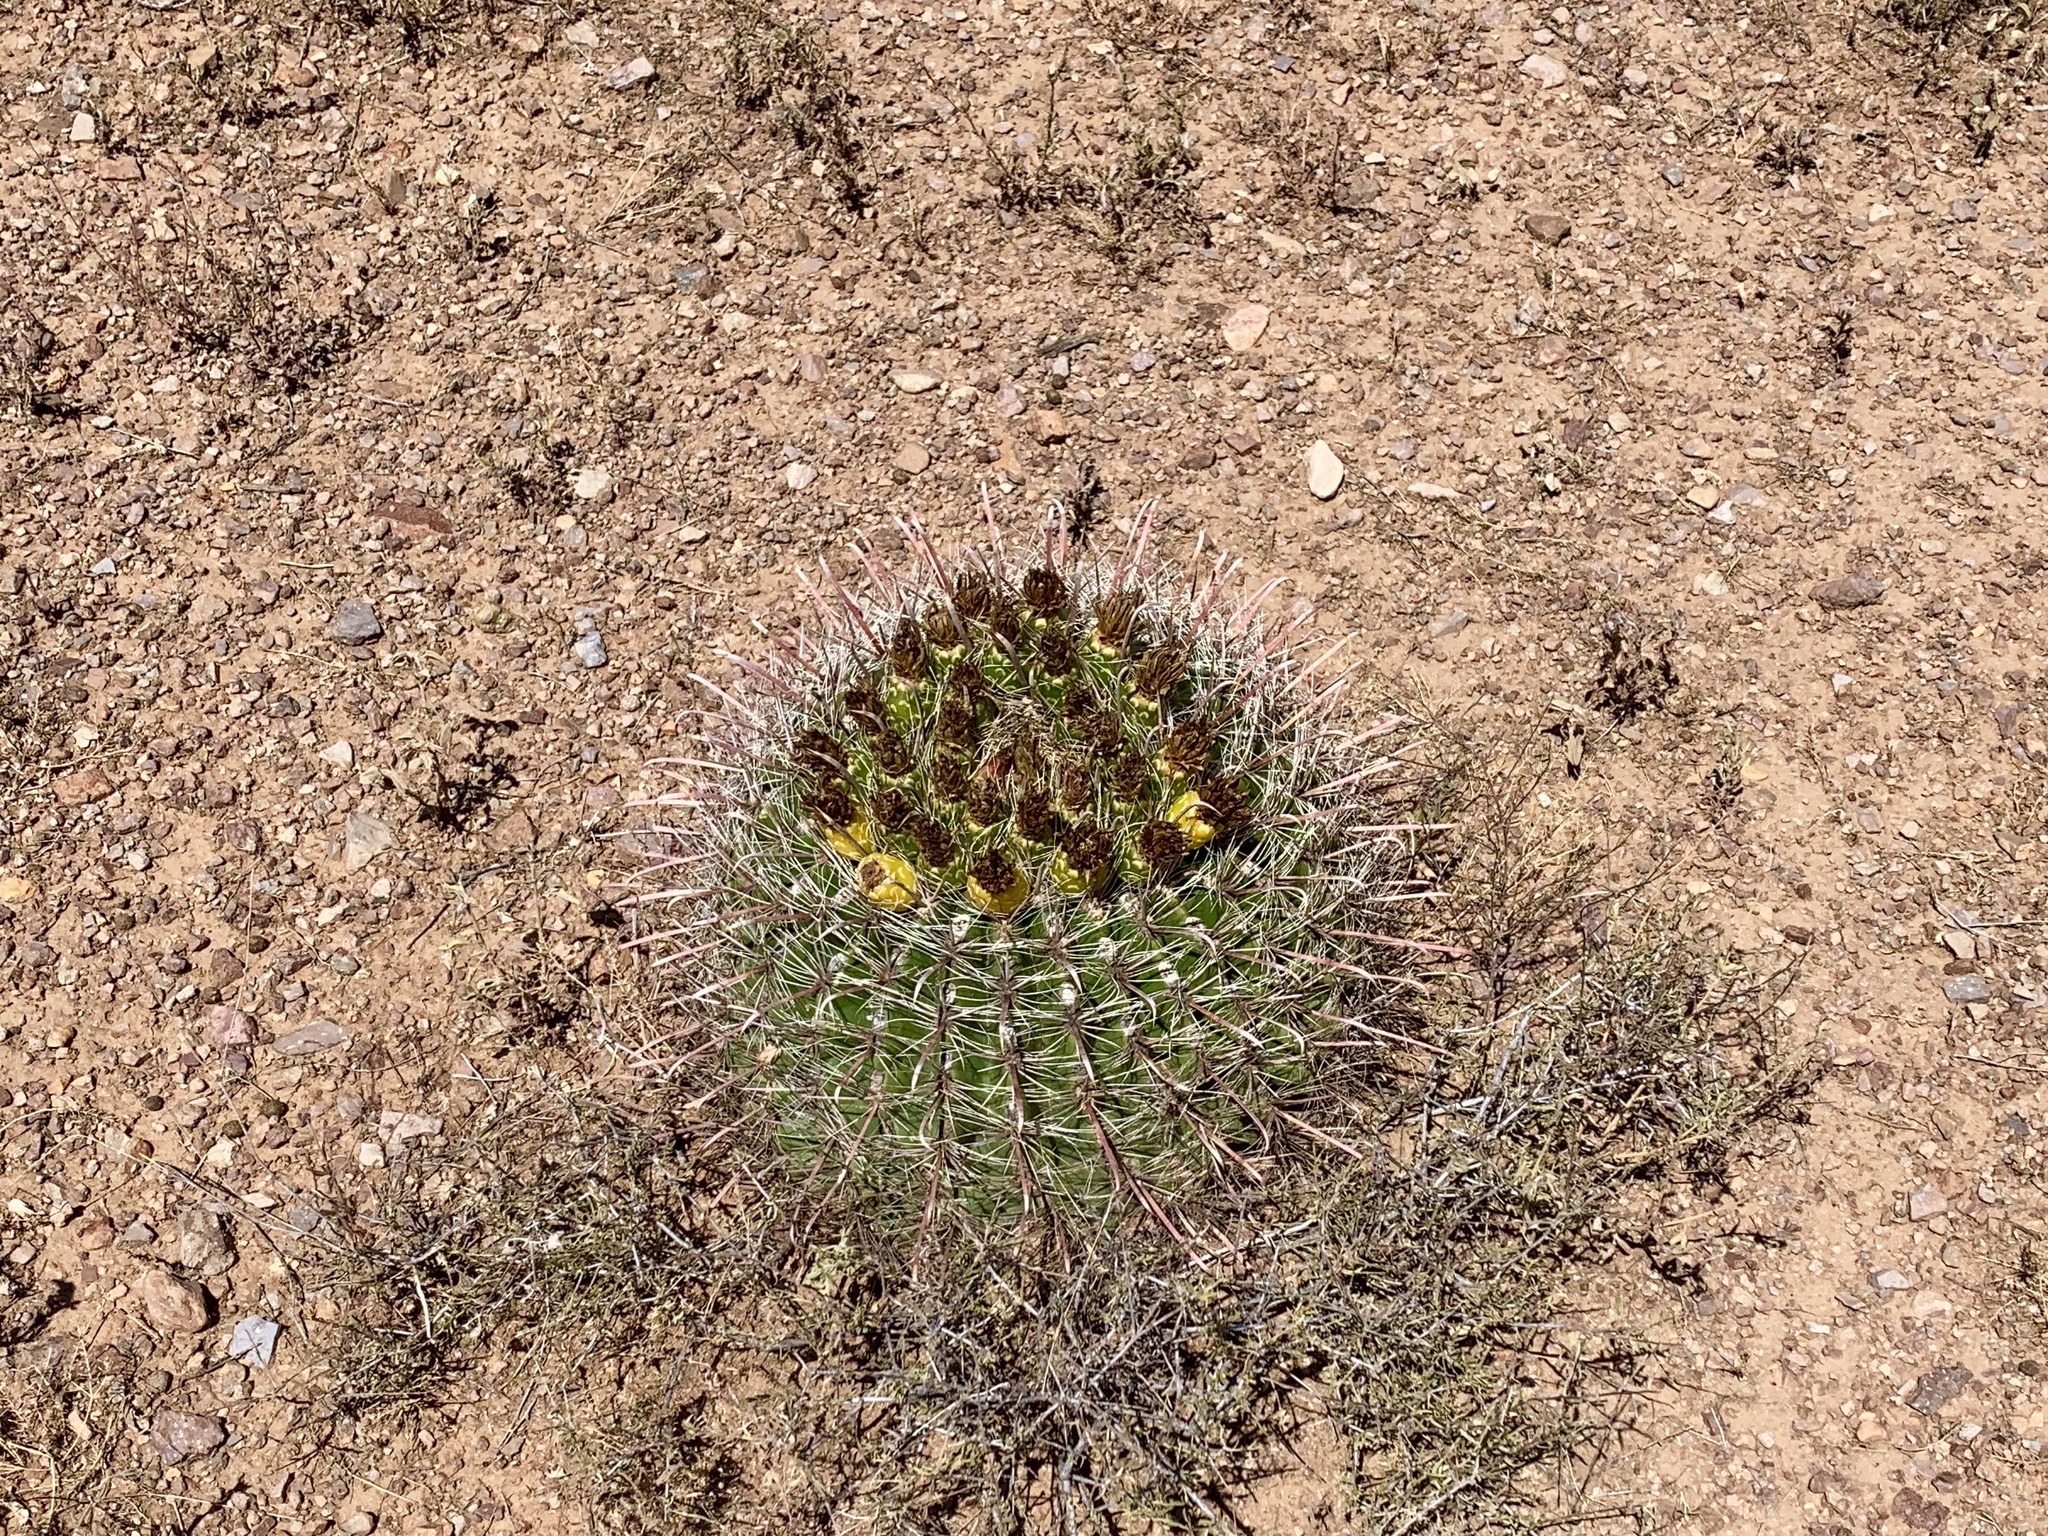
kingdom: Plantae
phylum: Tracheophyta
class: Magnoliopsida
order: Caryophyllales
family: Cactaceae
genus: Ferocactus
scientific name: Ferocactus wislizeni
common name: Candy barrel cactus
